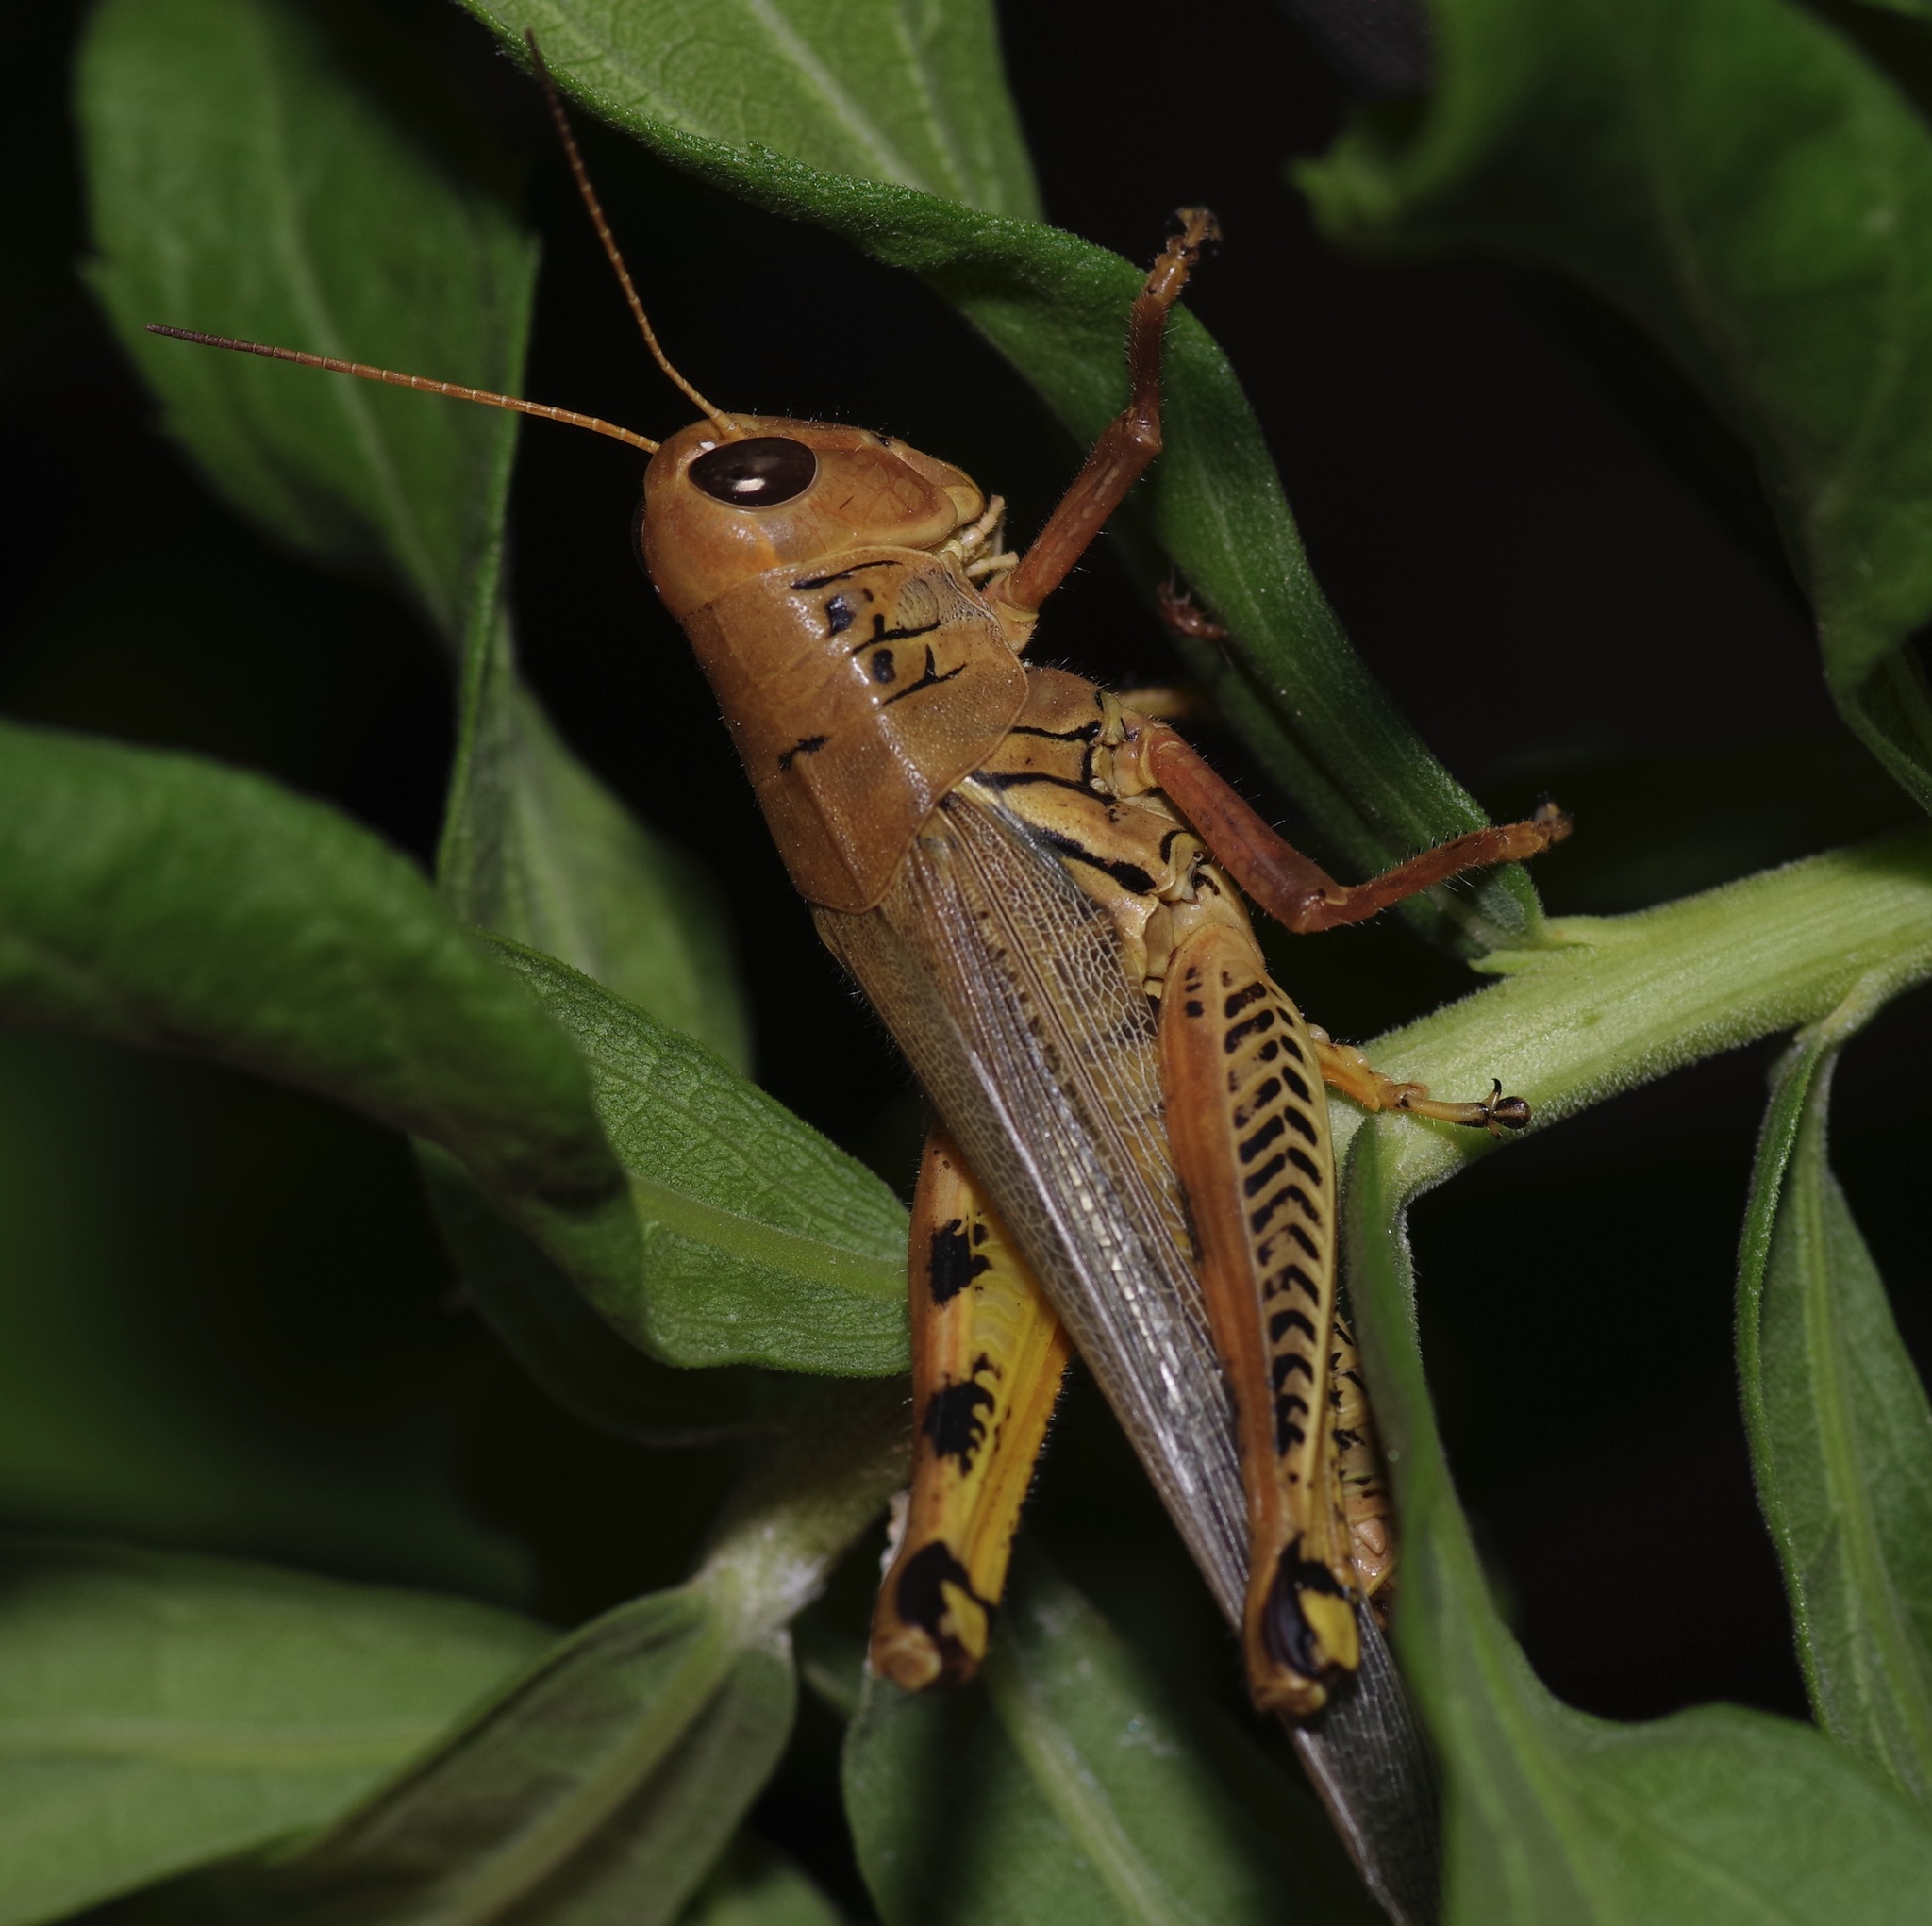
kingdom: Animalia
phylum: Arthropoda
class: Insecta
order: Orthoptera
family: Acrididae
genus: Melanoplus
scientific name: Melanoplus differentialis
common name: Differential grasshopper
